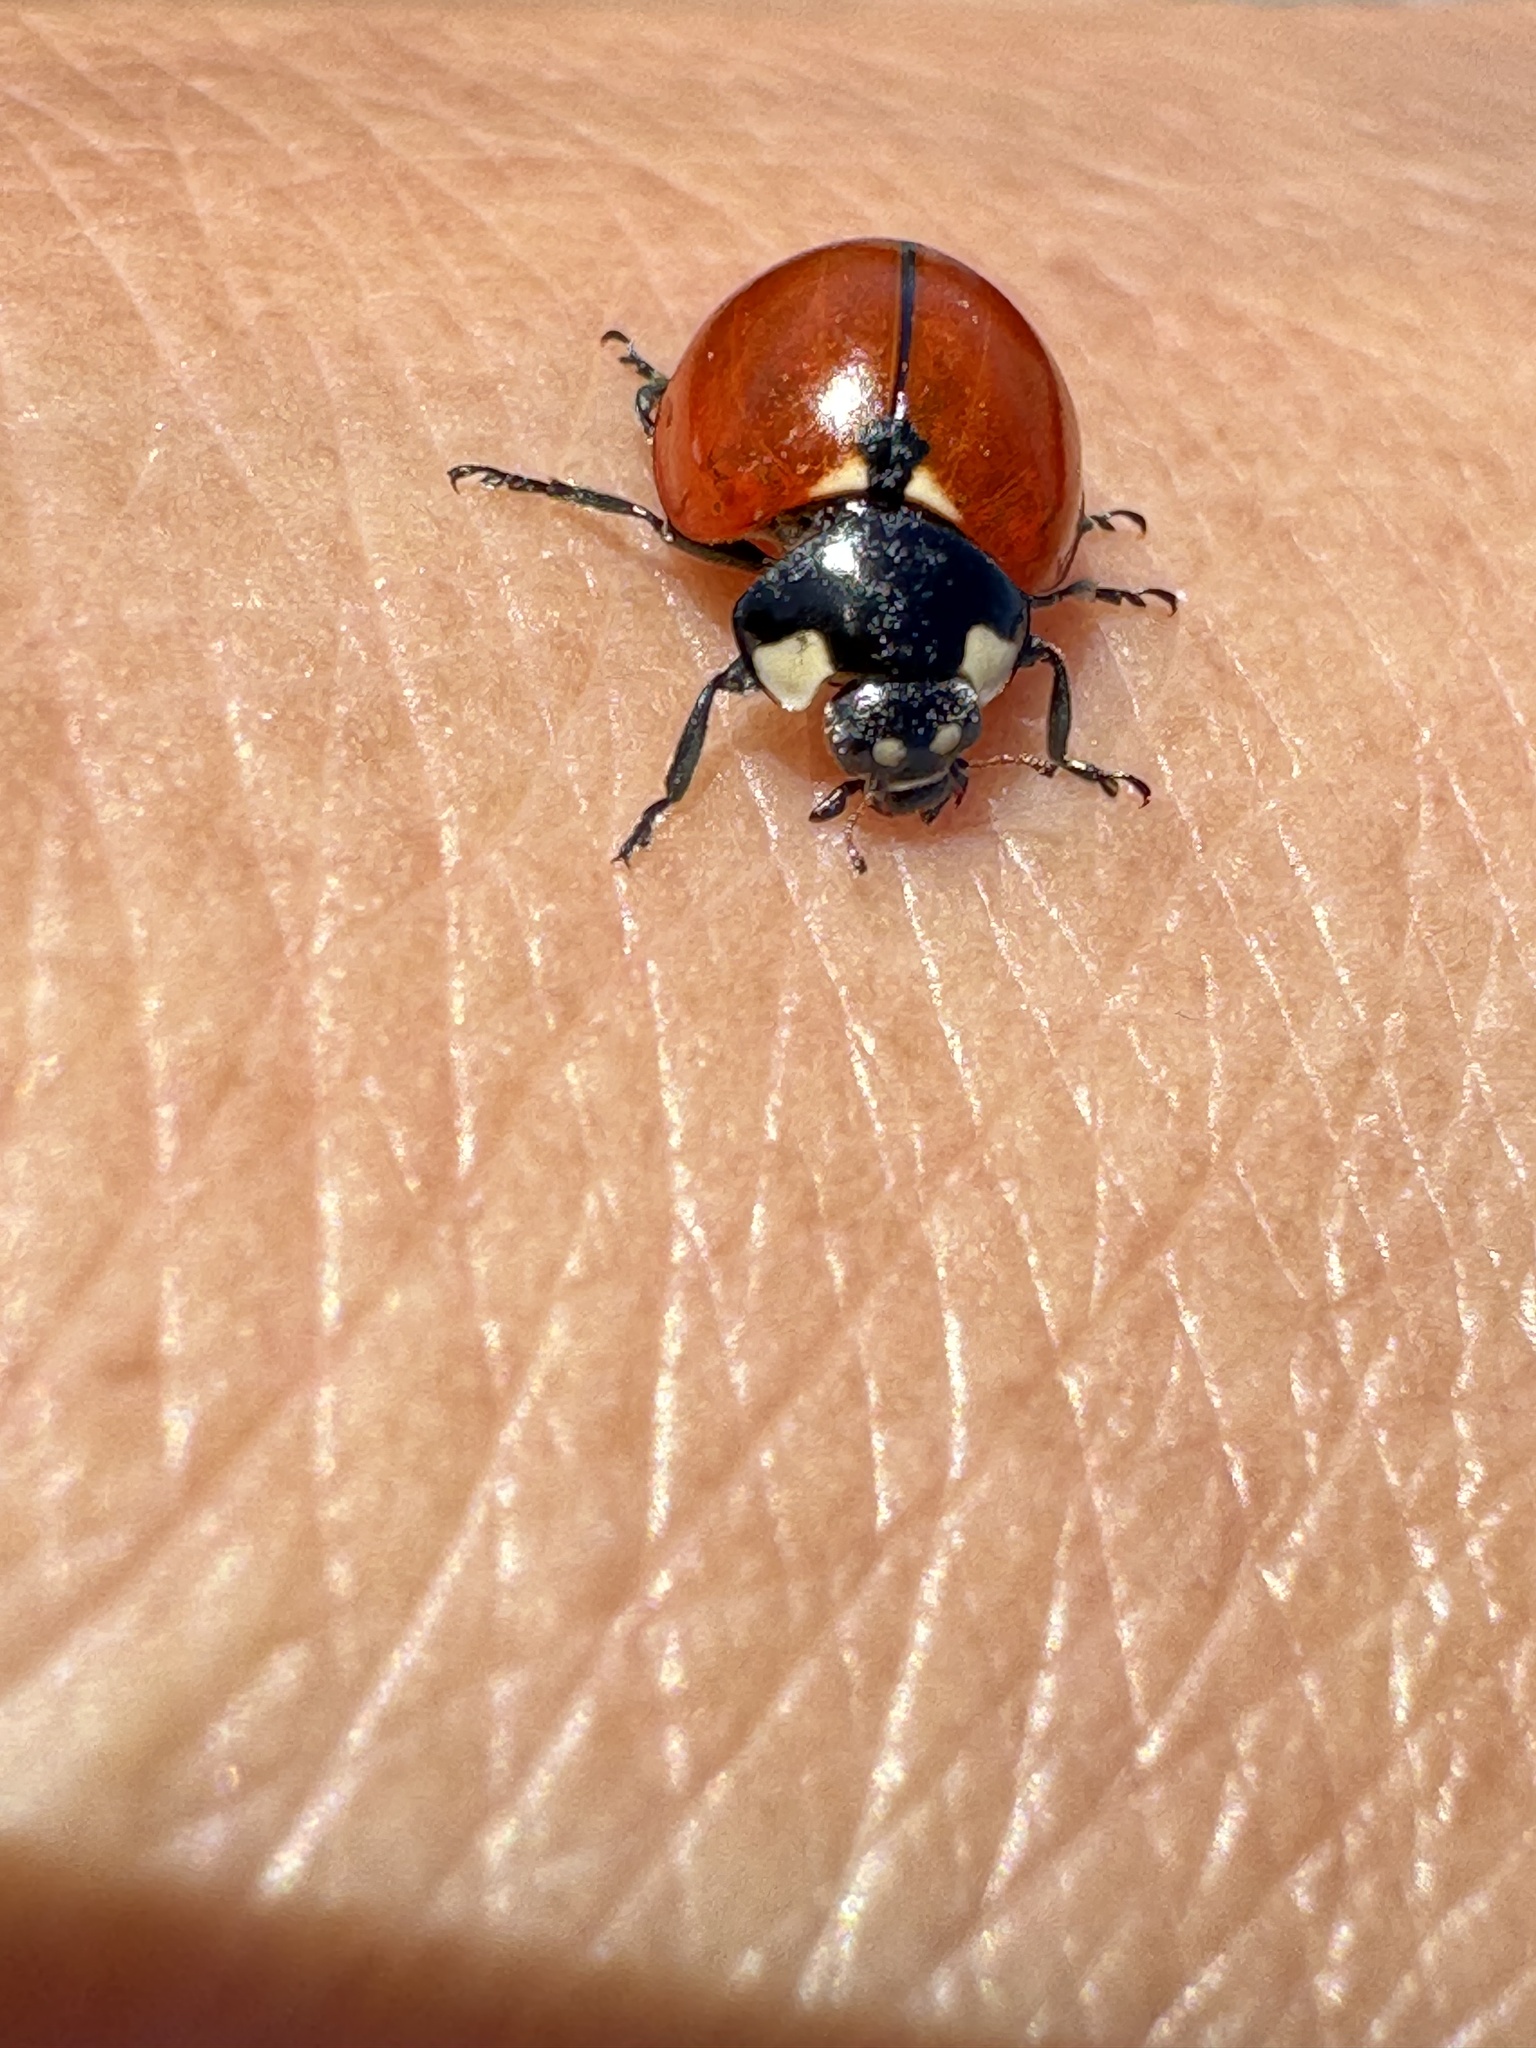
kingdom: Animalia
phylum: Arthropoda
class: Insecta
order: Coleoptera
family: Coccinellidae
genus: Coccinella
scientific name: Coccinella californica
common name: Lady beetle
